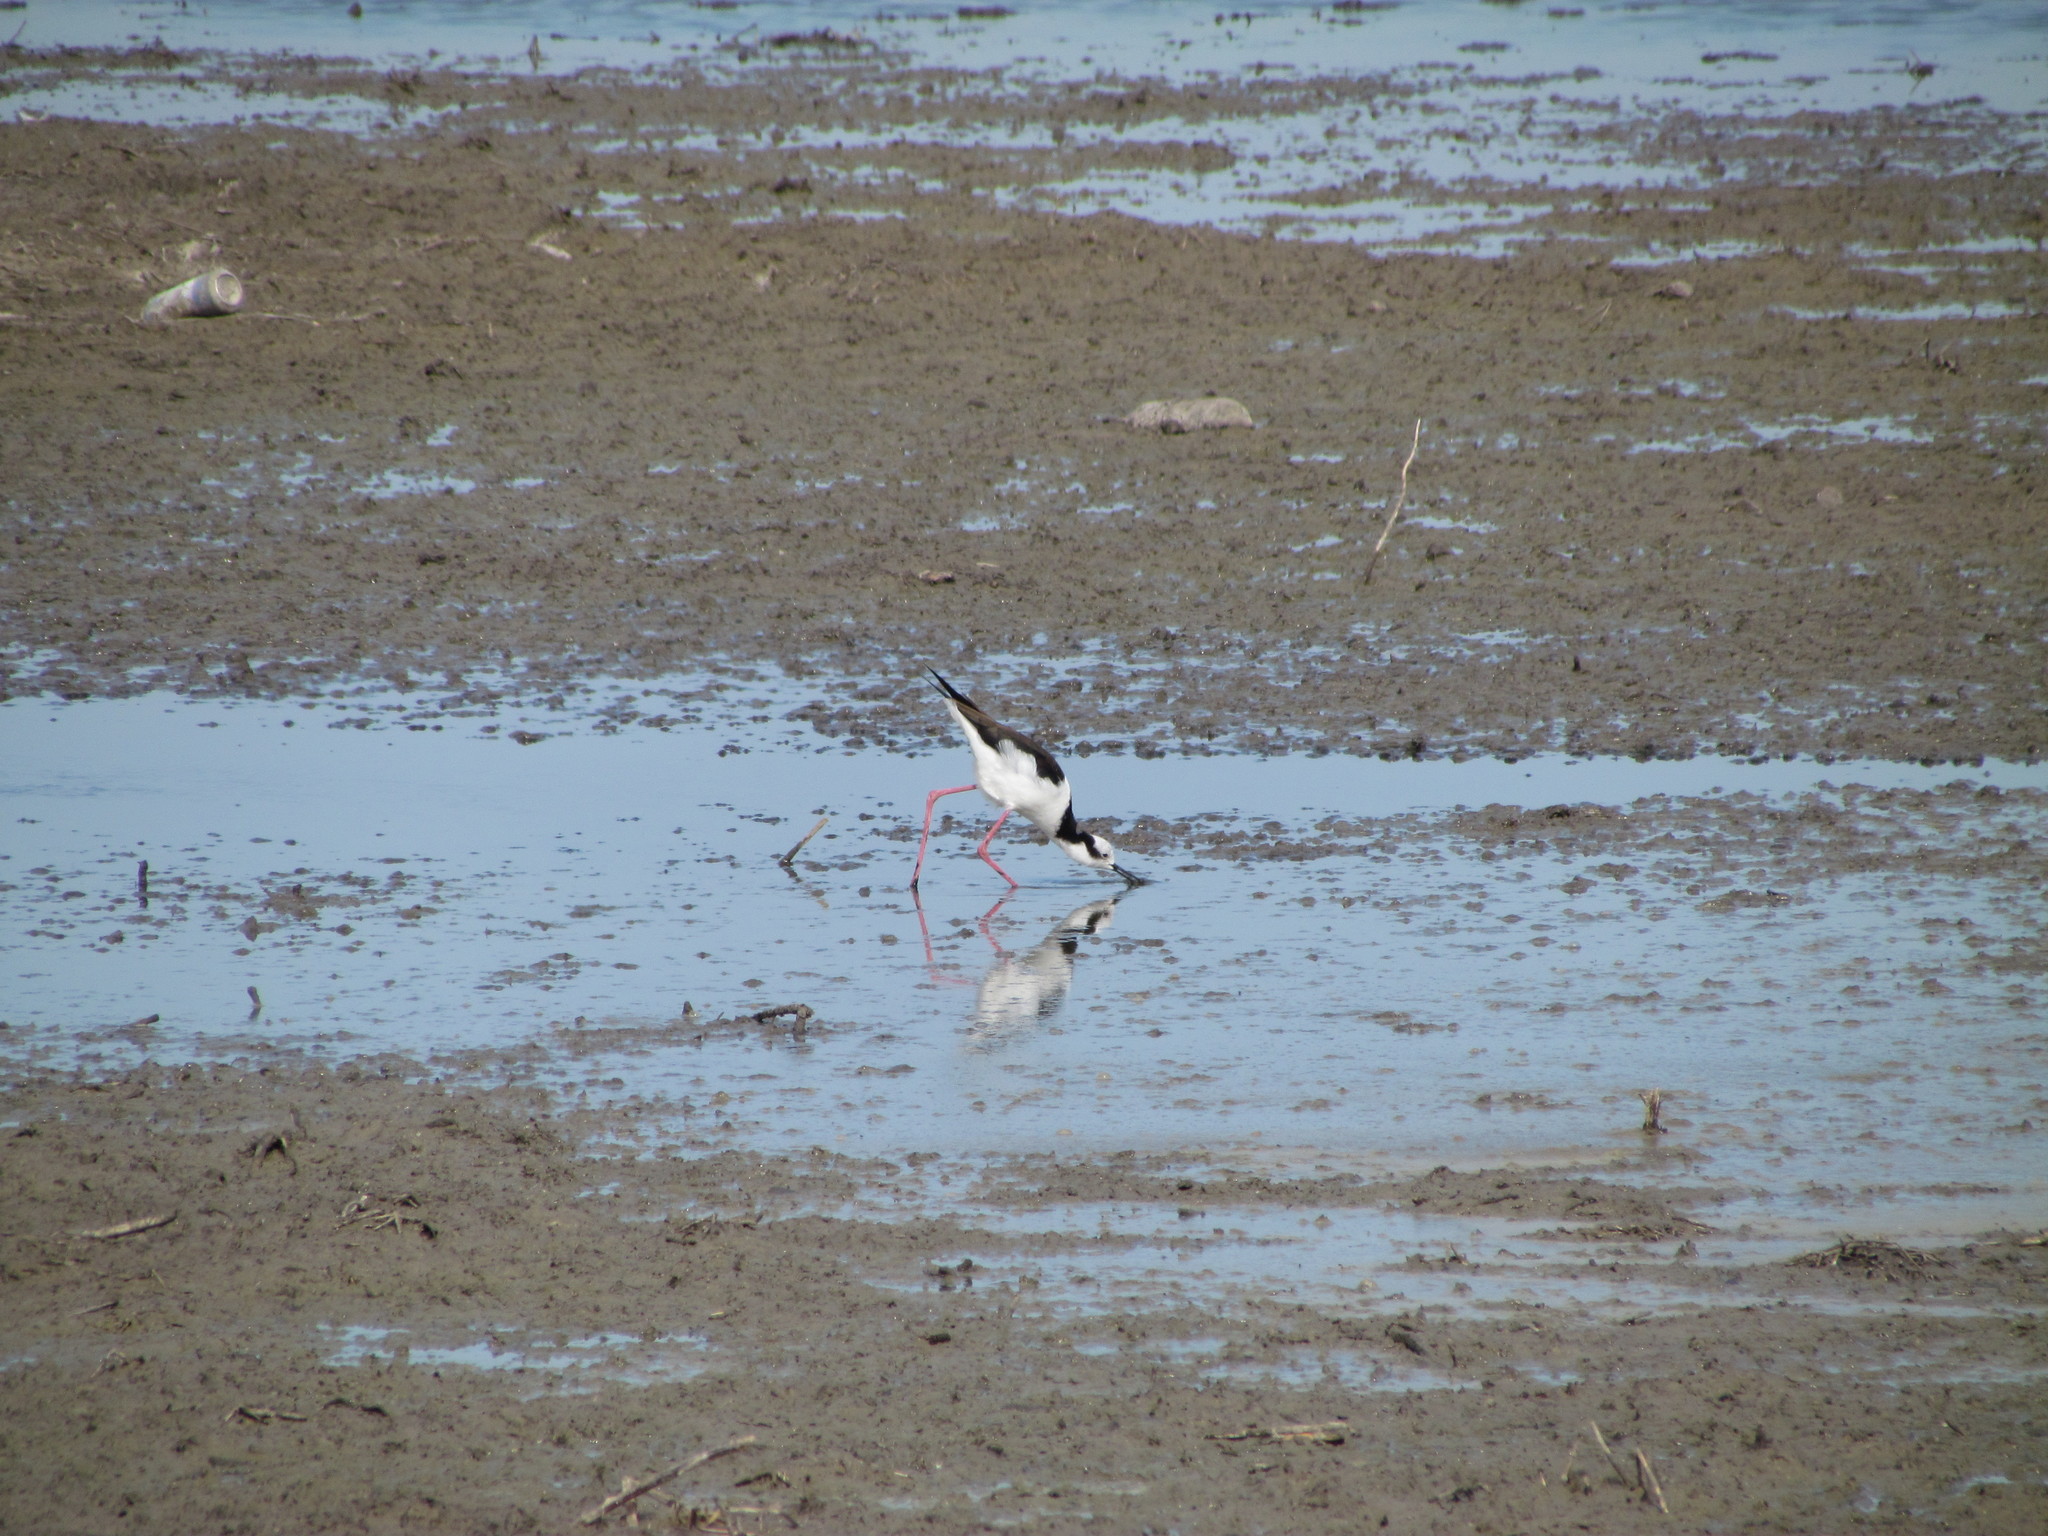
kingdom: Animalia
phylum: Chordata
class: Aves
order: Charadriiformes
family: Recurvirostridae
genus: Himantopus
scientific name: Himantopus mexicanus
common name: Black-necked stilt
